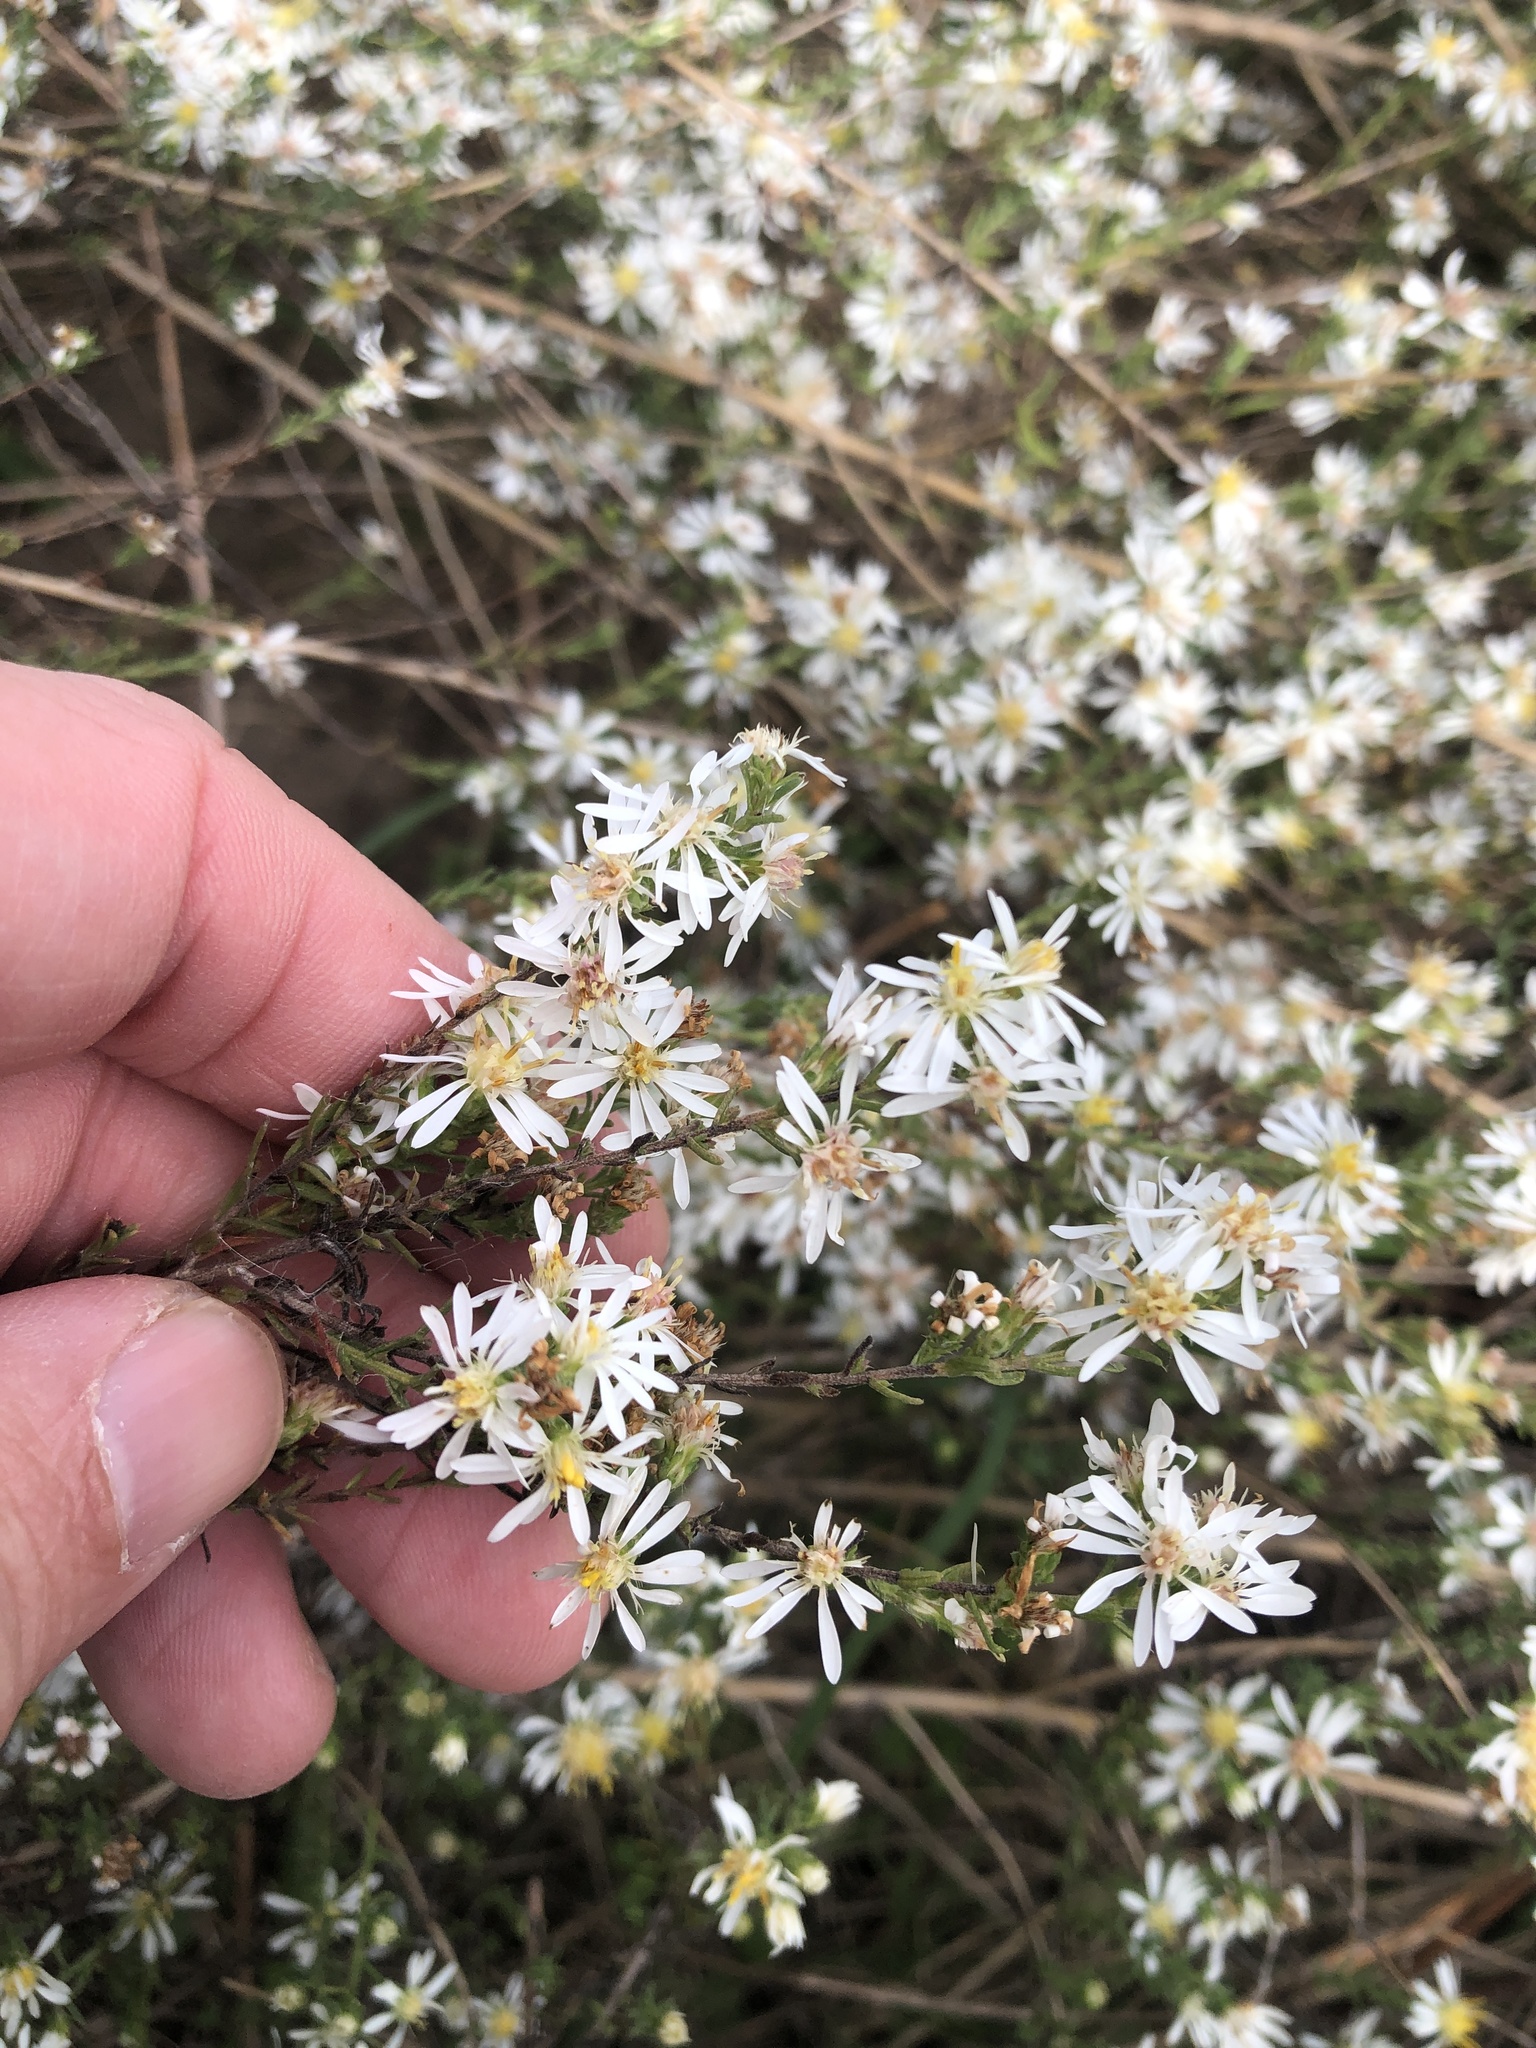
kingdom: Plantae
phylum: Tracheophyta
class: Magnoliopsida
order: Asterales
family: Asteraceae
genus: Symphyotrichum
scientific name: Symphyotrichum ericoides
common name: Heath aster
